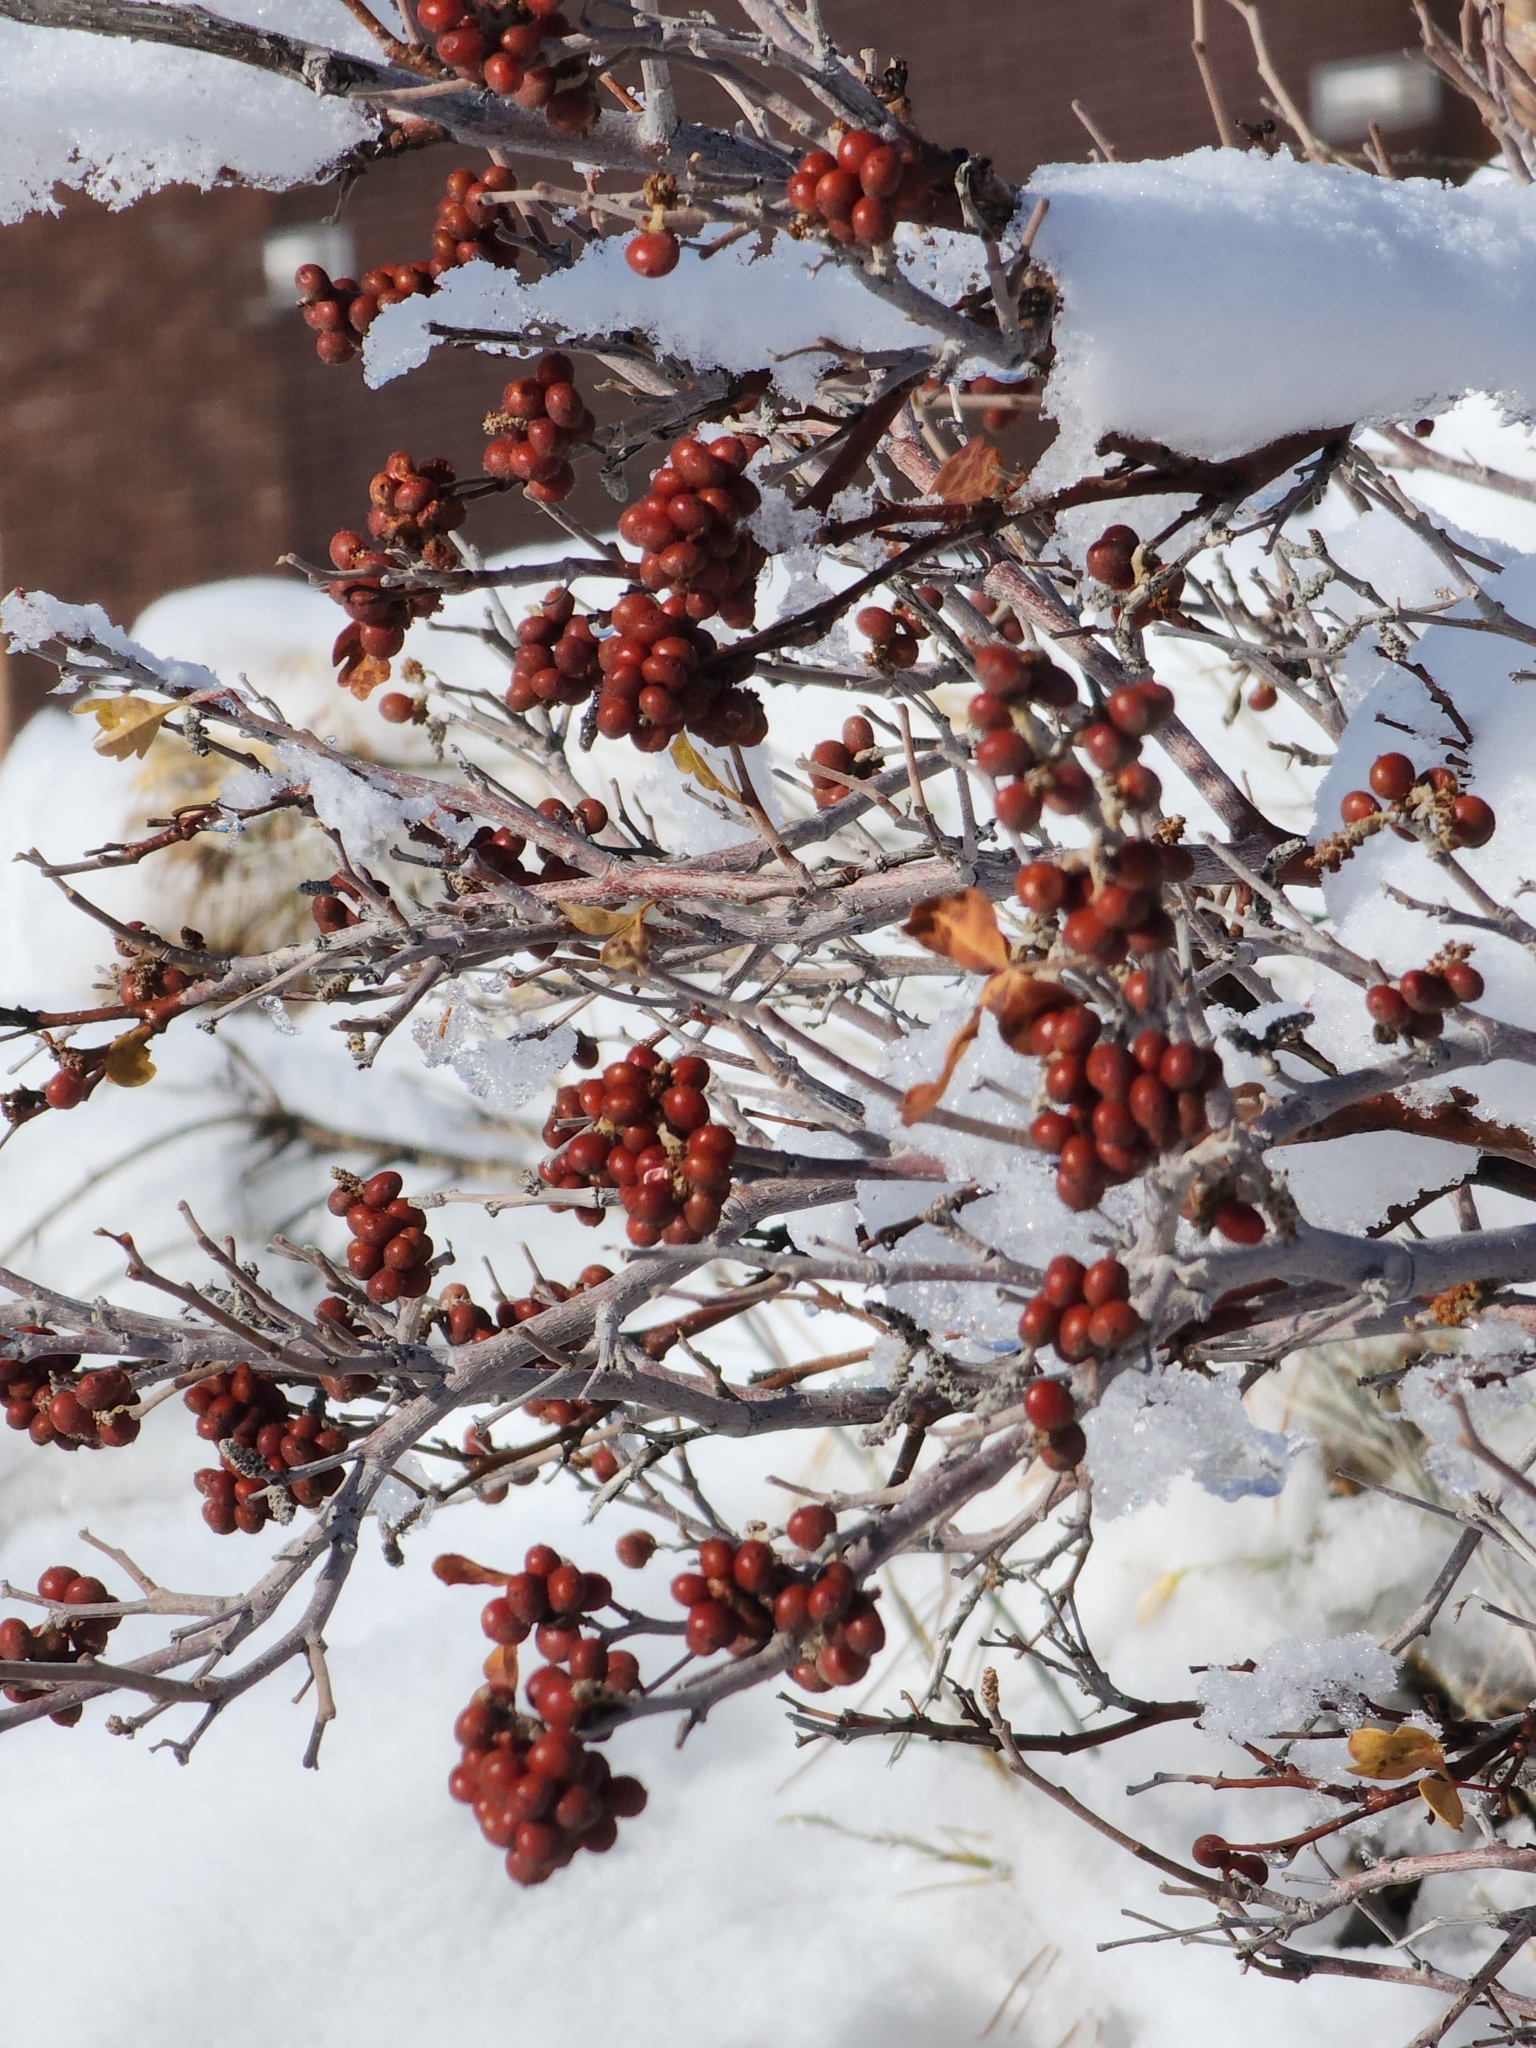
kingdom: Plantae
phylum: Tracheophyta
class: Magnoliopsida
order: Sapindales
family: Anacardiaceae
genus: Rhus
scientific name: Rhus aromatica
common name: Aromatic sumac
